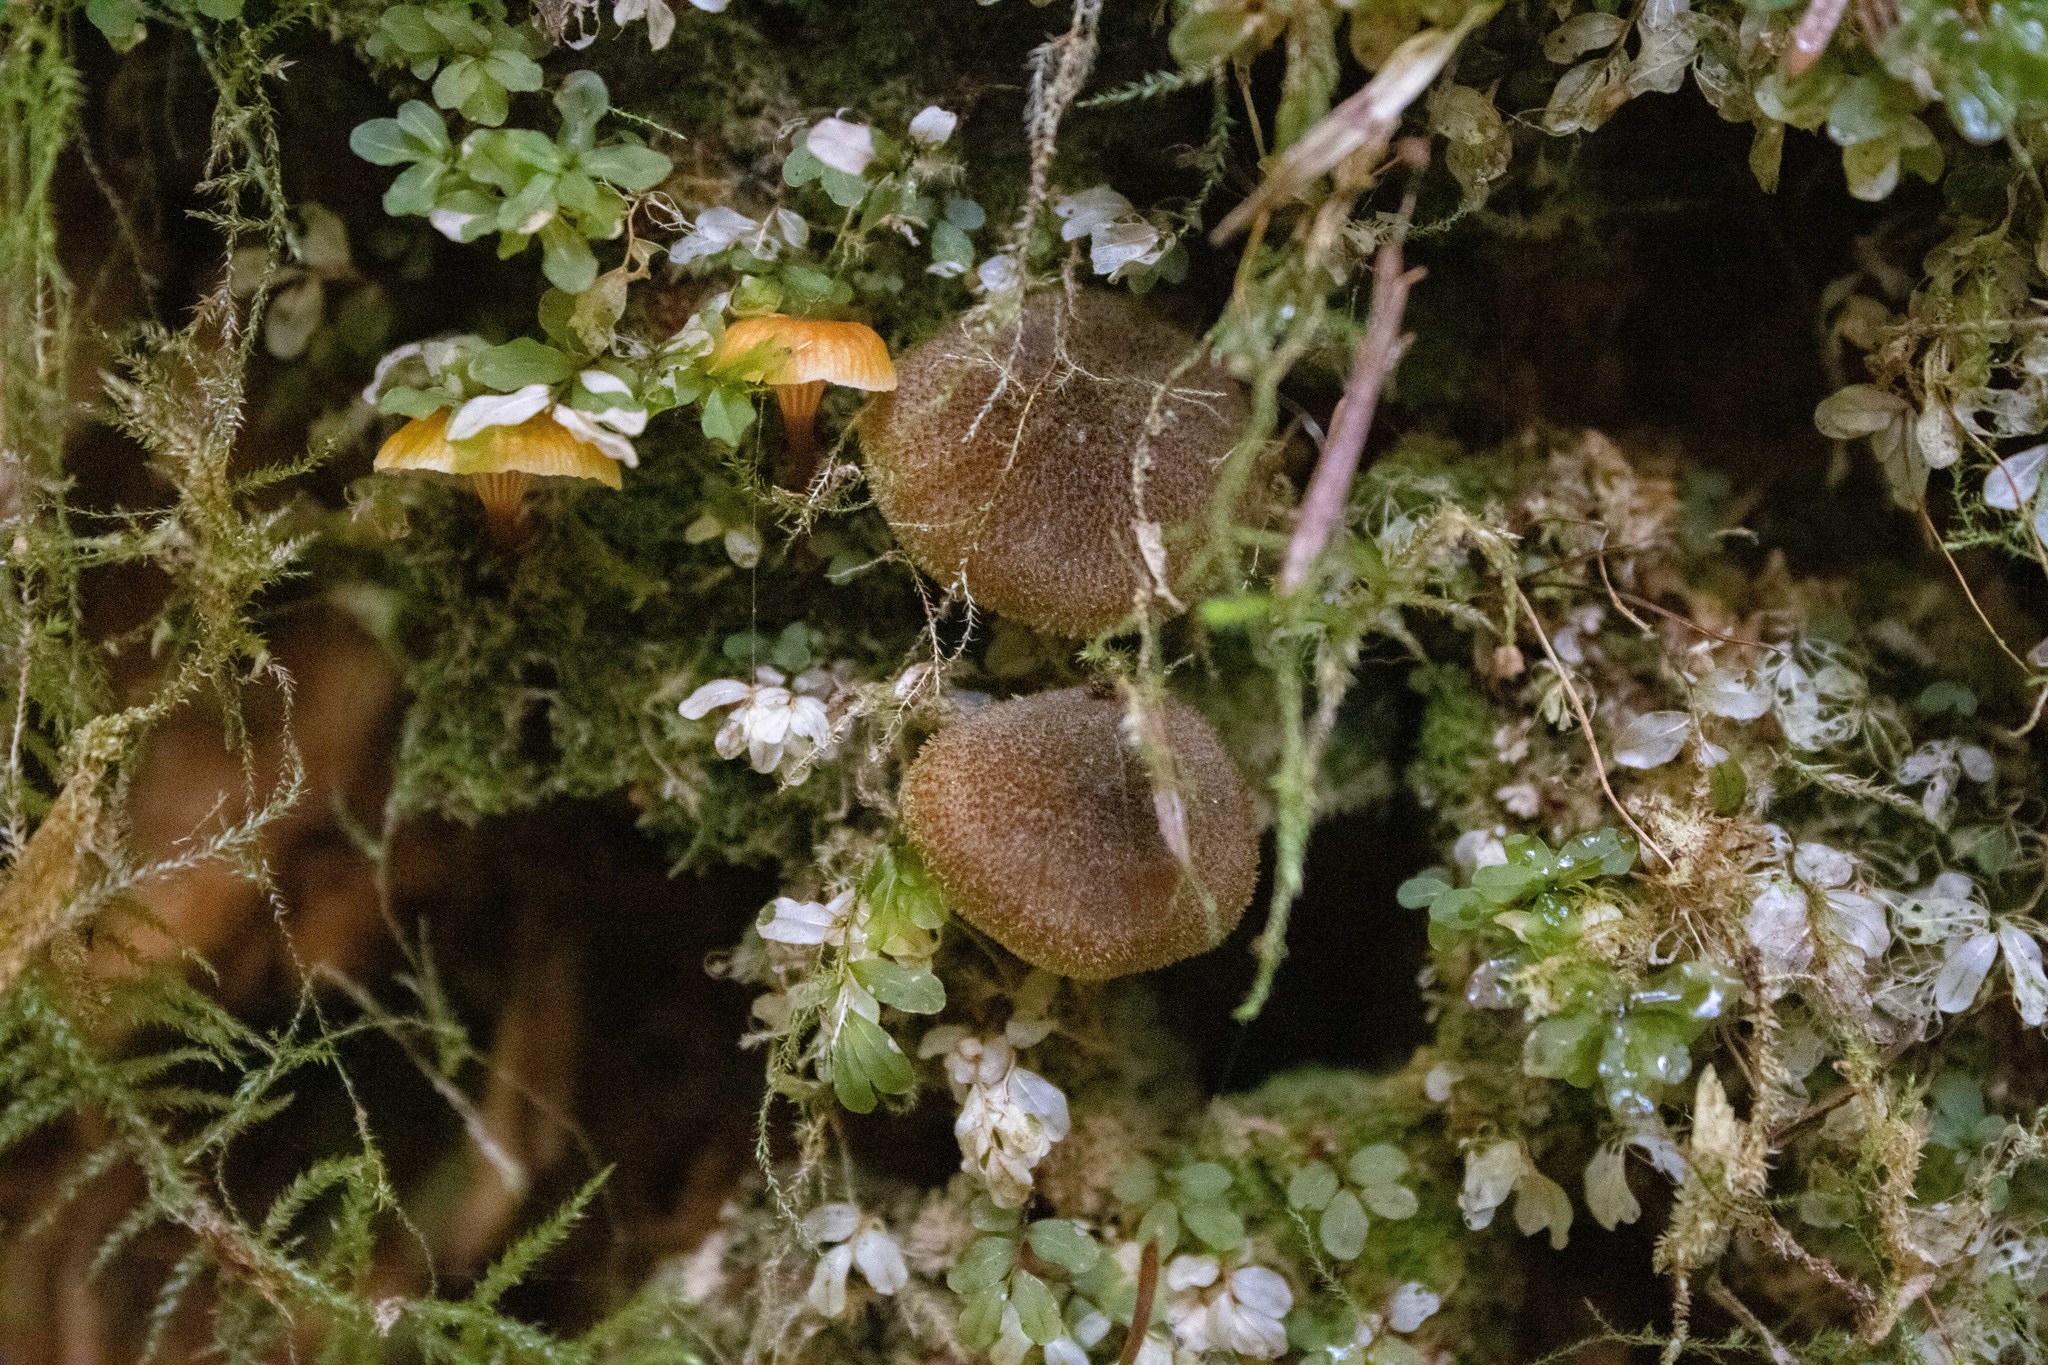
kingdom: Fungi
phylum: Basidiomycota
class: Agaricomycetes
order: Agaricales
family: Tricholomataceae
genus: Tricholomopsis
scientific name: Tricholomopsis decora
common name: Prunes and custard
